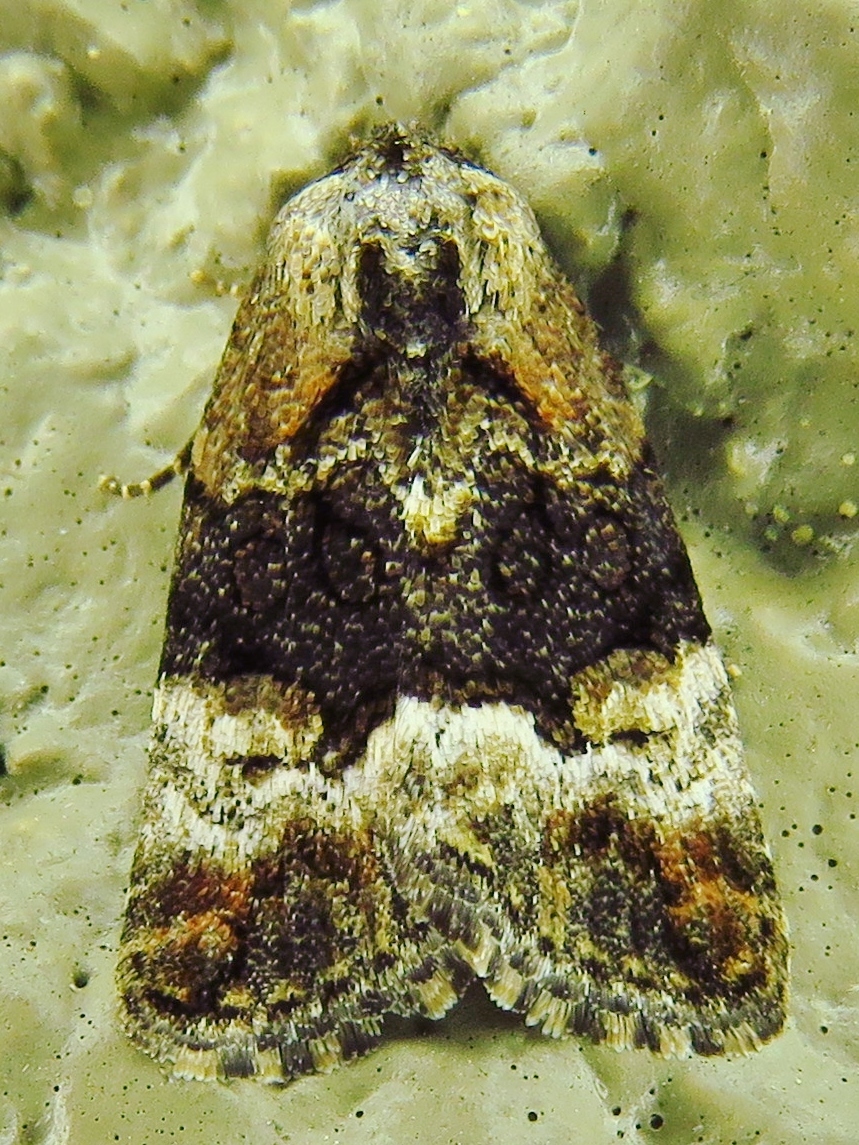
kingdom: Animalia
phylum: Arthropoda
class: Insecta
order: Lepidoptera
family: Noctuidae
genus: Elaphria
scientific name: Elaphria georgei
